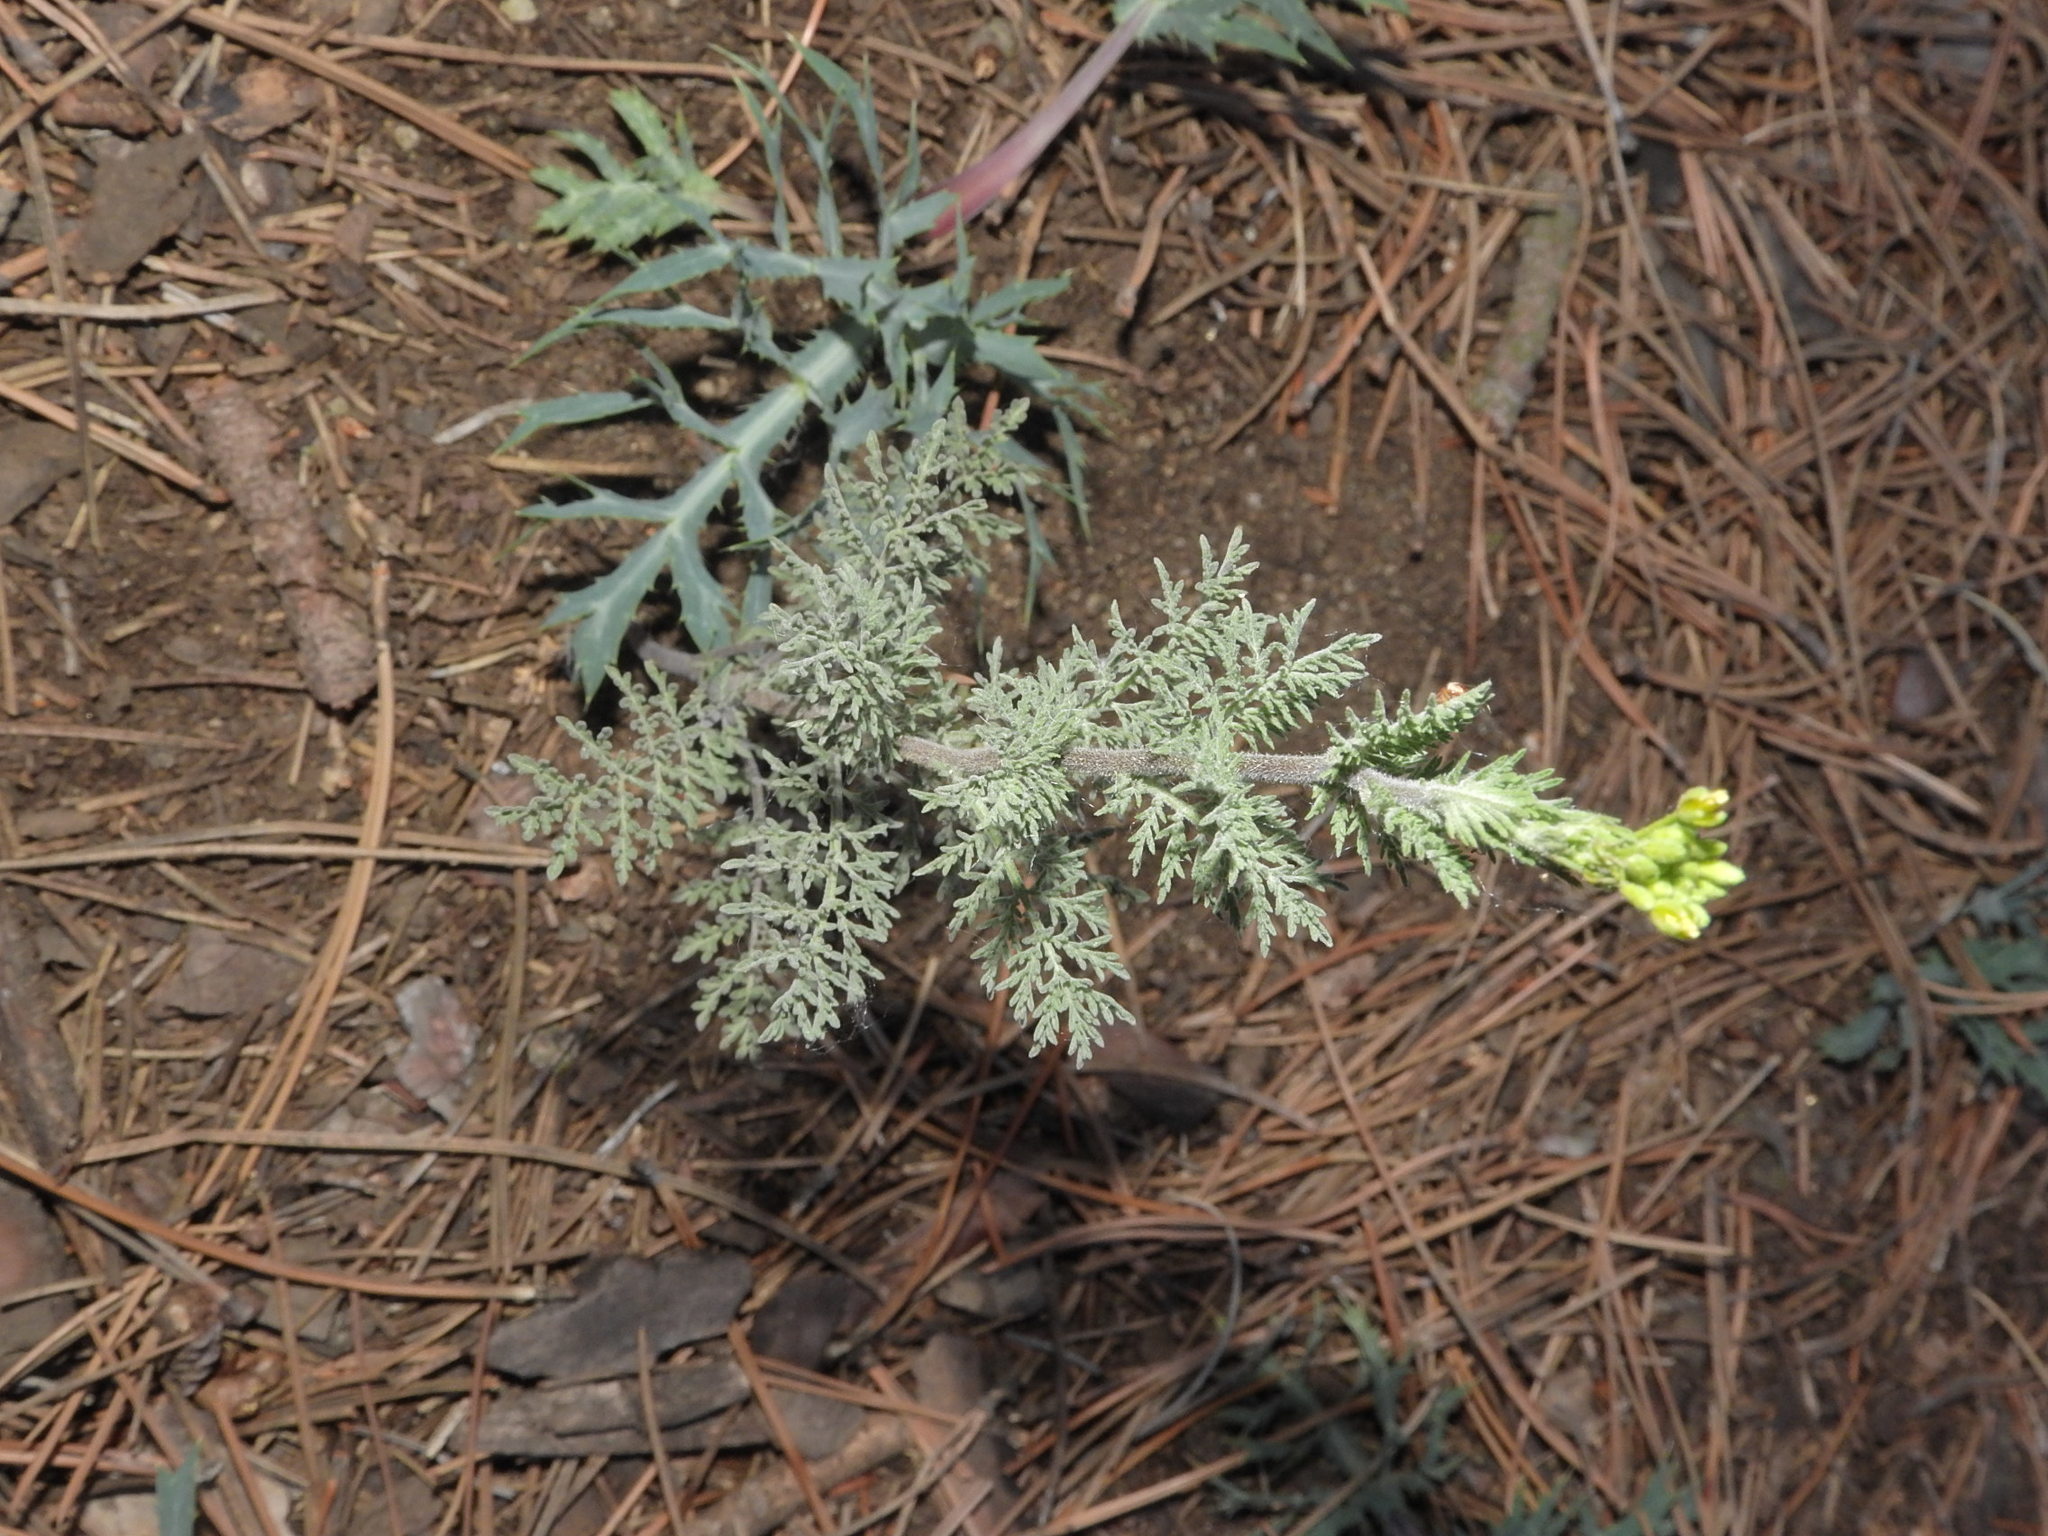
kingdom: Plantae
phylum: Tracheophyta
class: Magnoliopsida
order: Brassicales
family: Brassicaceae
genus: Descurainia
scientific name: Descurainia sophia
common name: Flixweed
